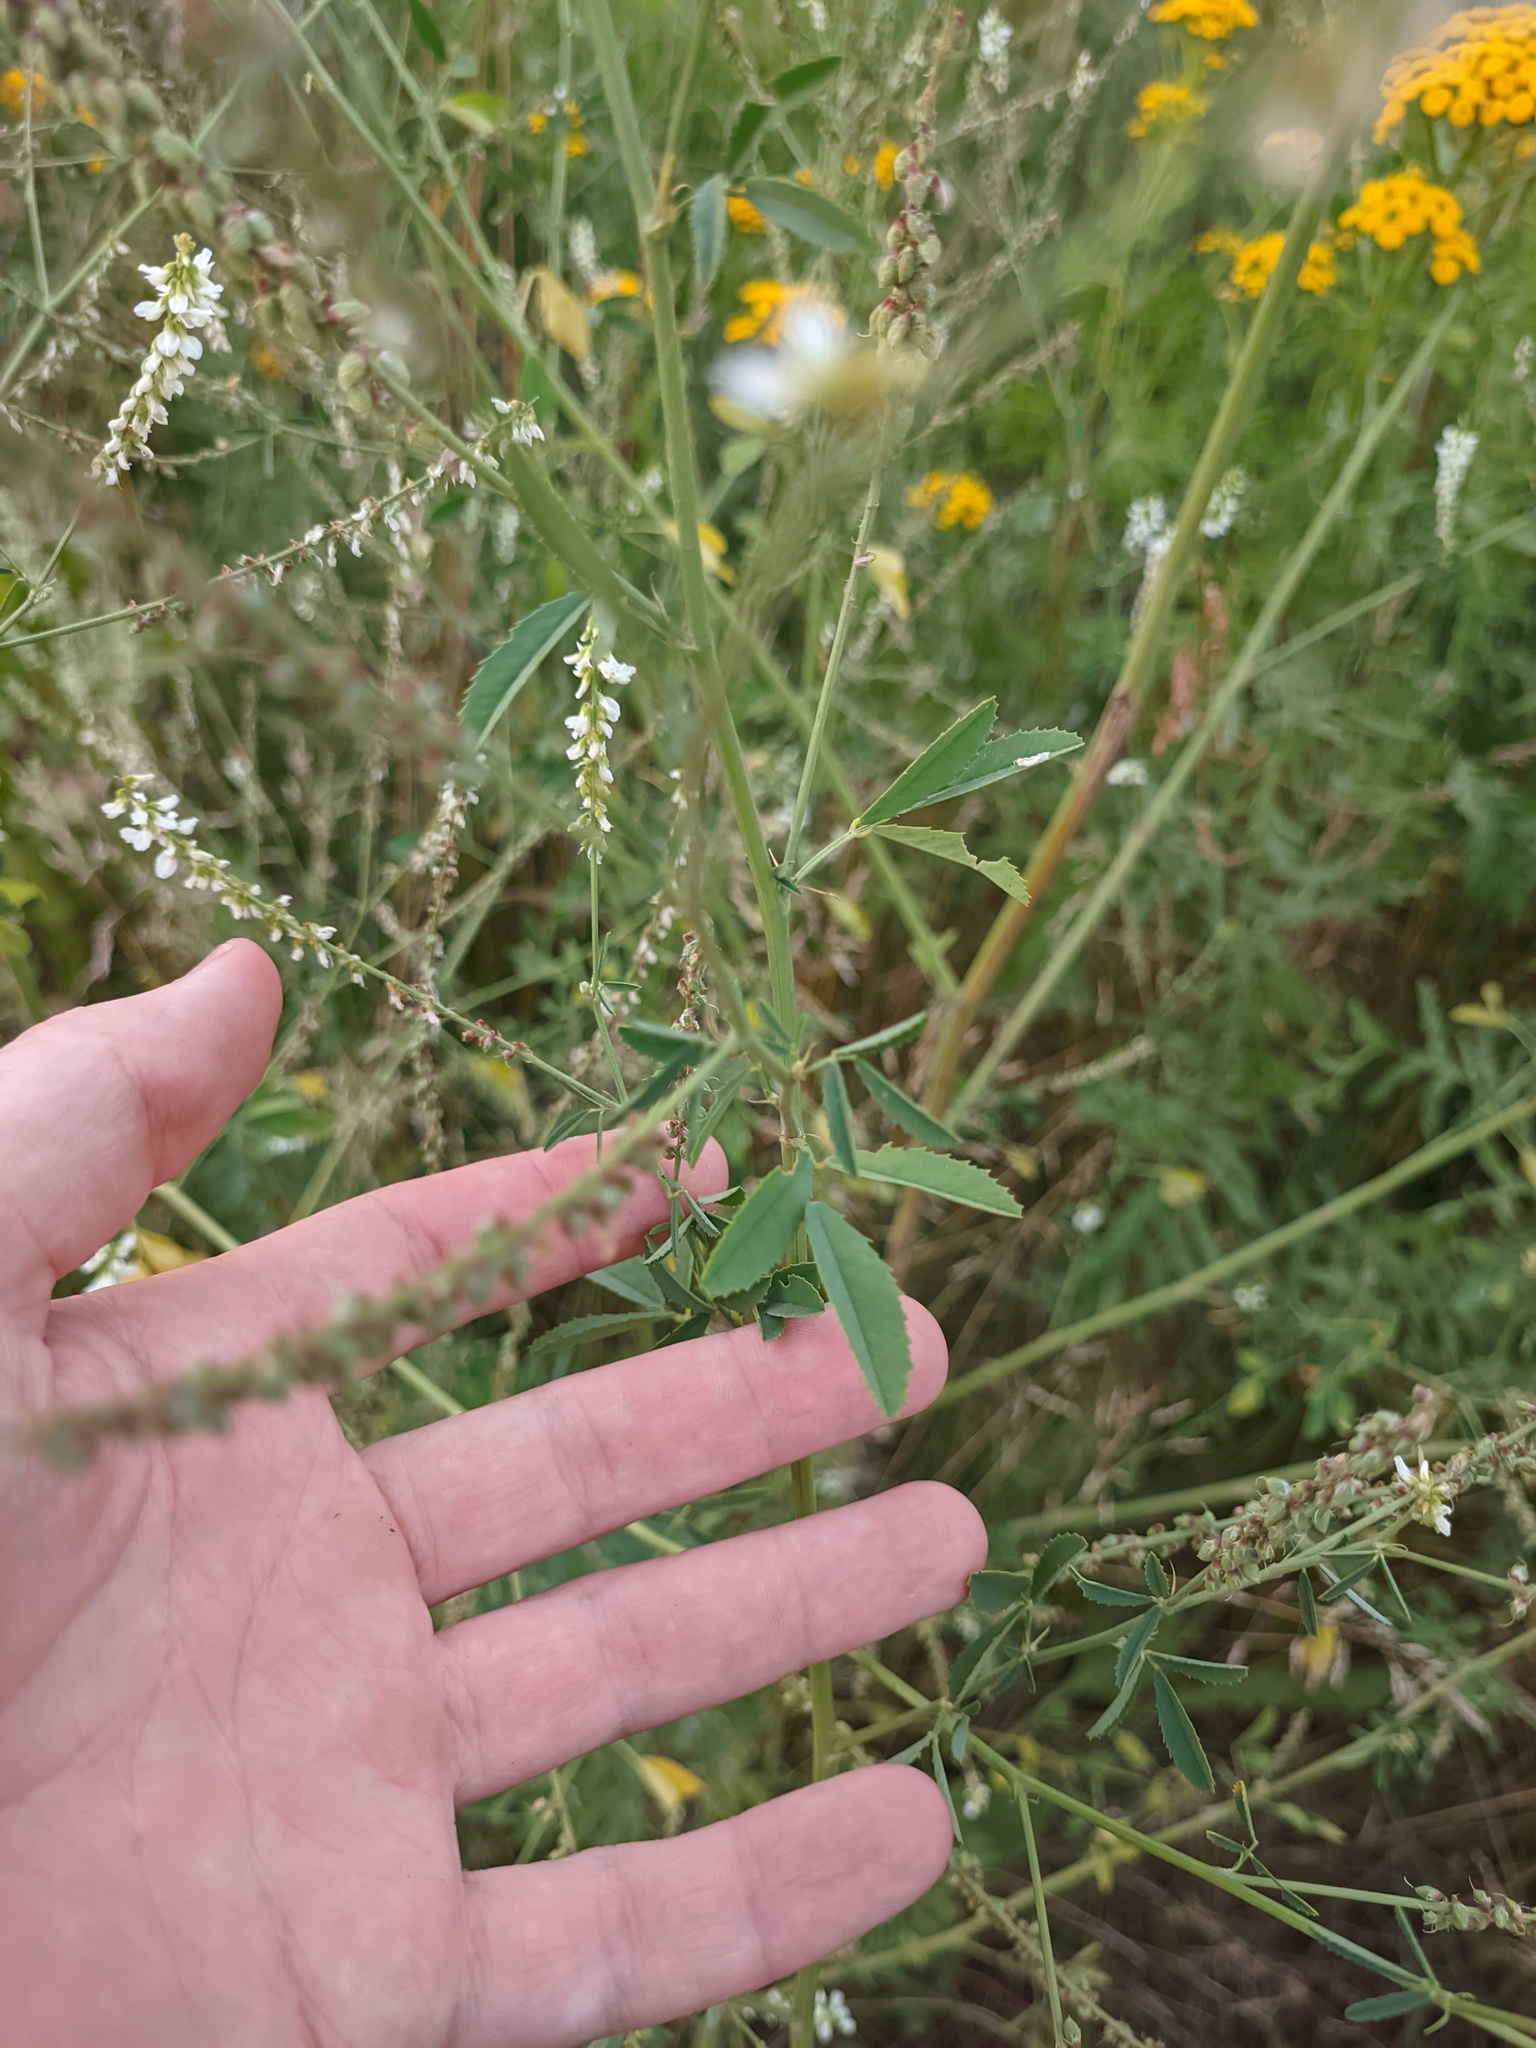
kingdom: Plantae
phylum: Tracheophyta
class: Magnoliopsida
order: Fabales
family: Fabaceae
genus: Melilotus
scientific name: Melilotus albus
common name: White melilot
